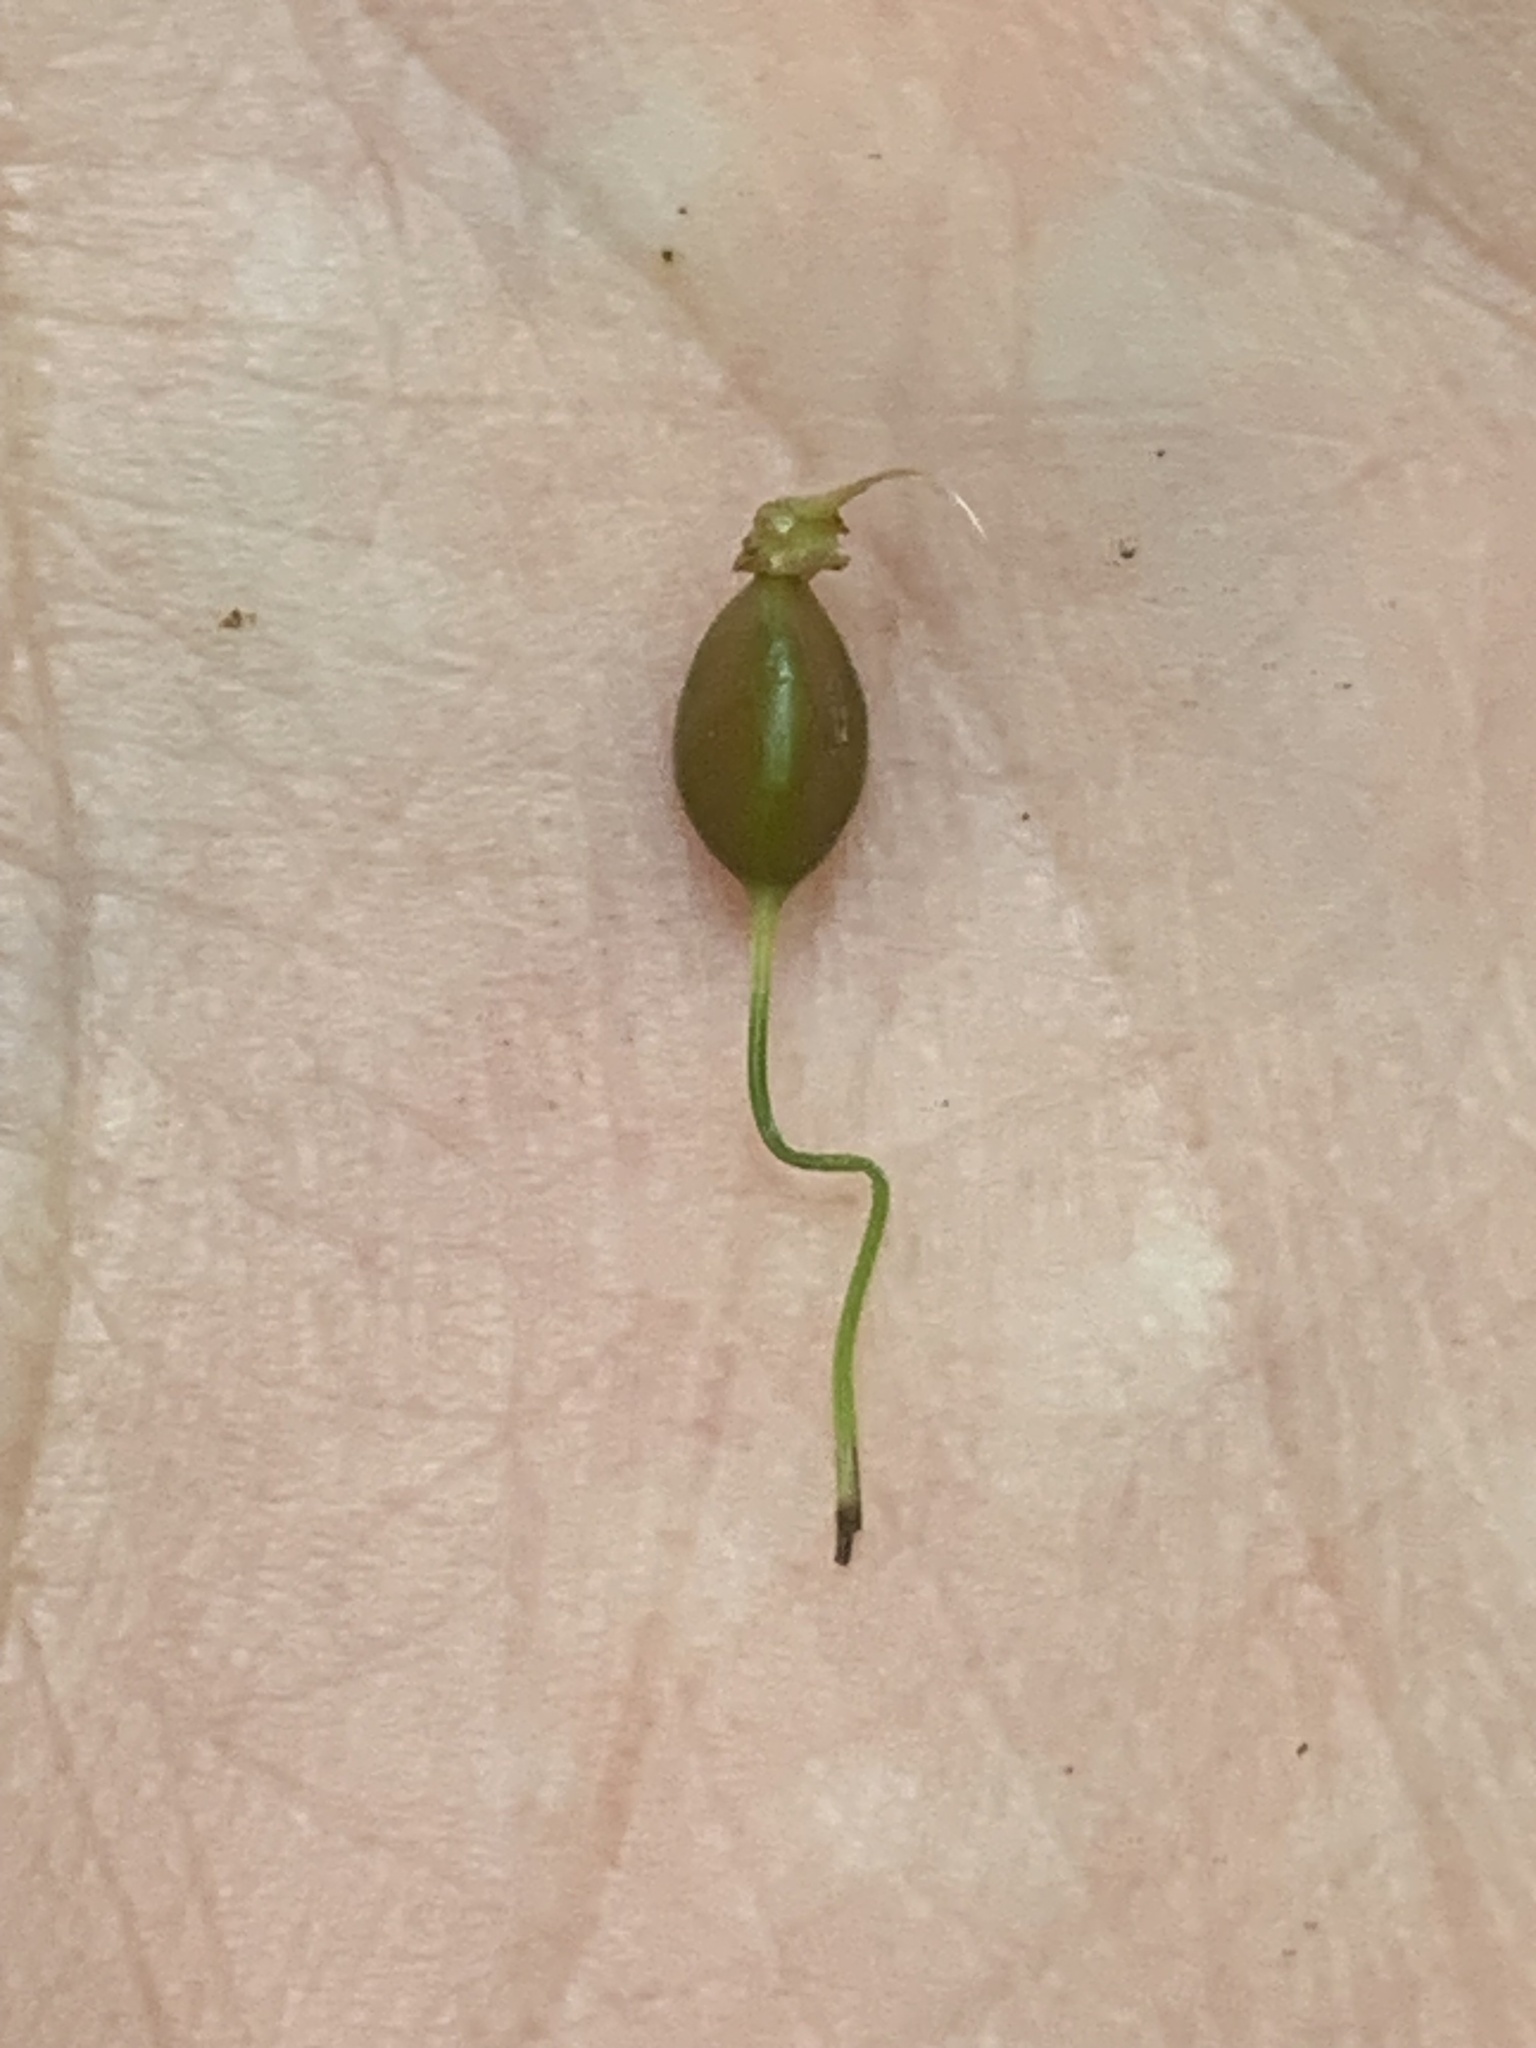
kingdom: Plantae
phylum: Tracheophyta
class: Liliopsida
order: Poales
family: Cyperaceae
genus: Carex
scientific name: Carex intumescens
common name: Greater bladder sedge
